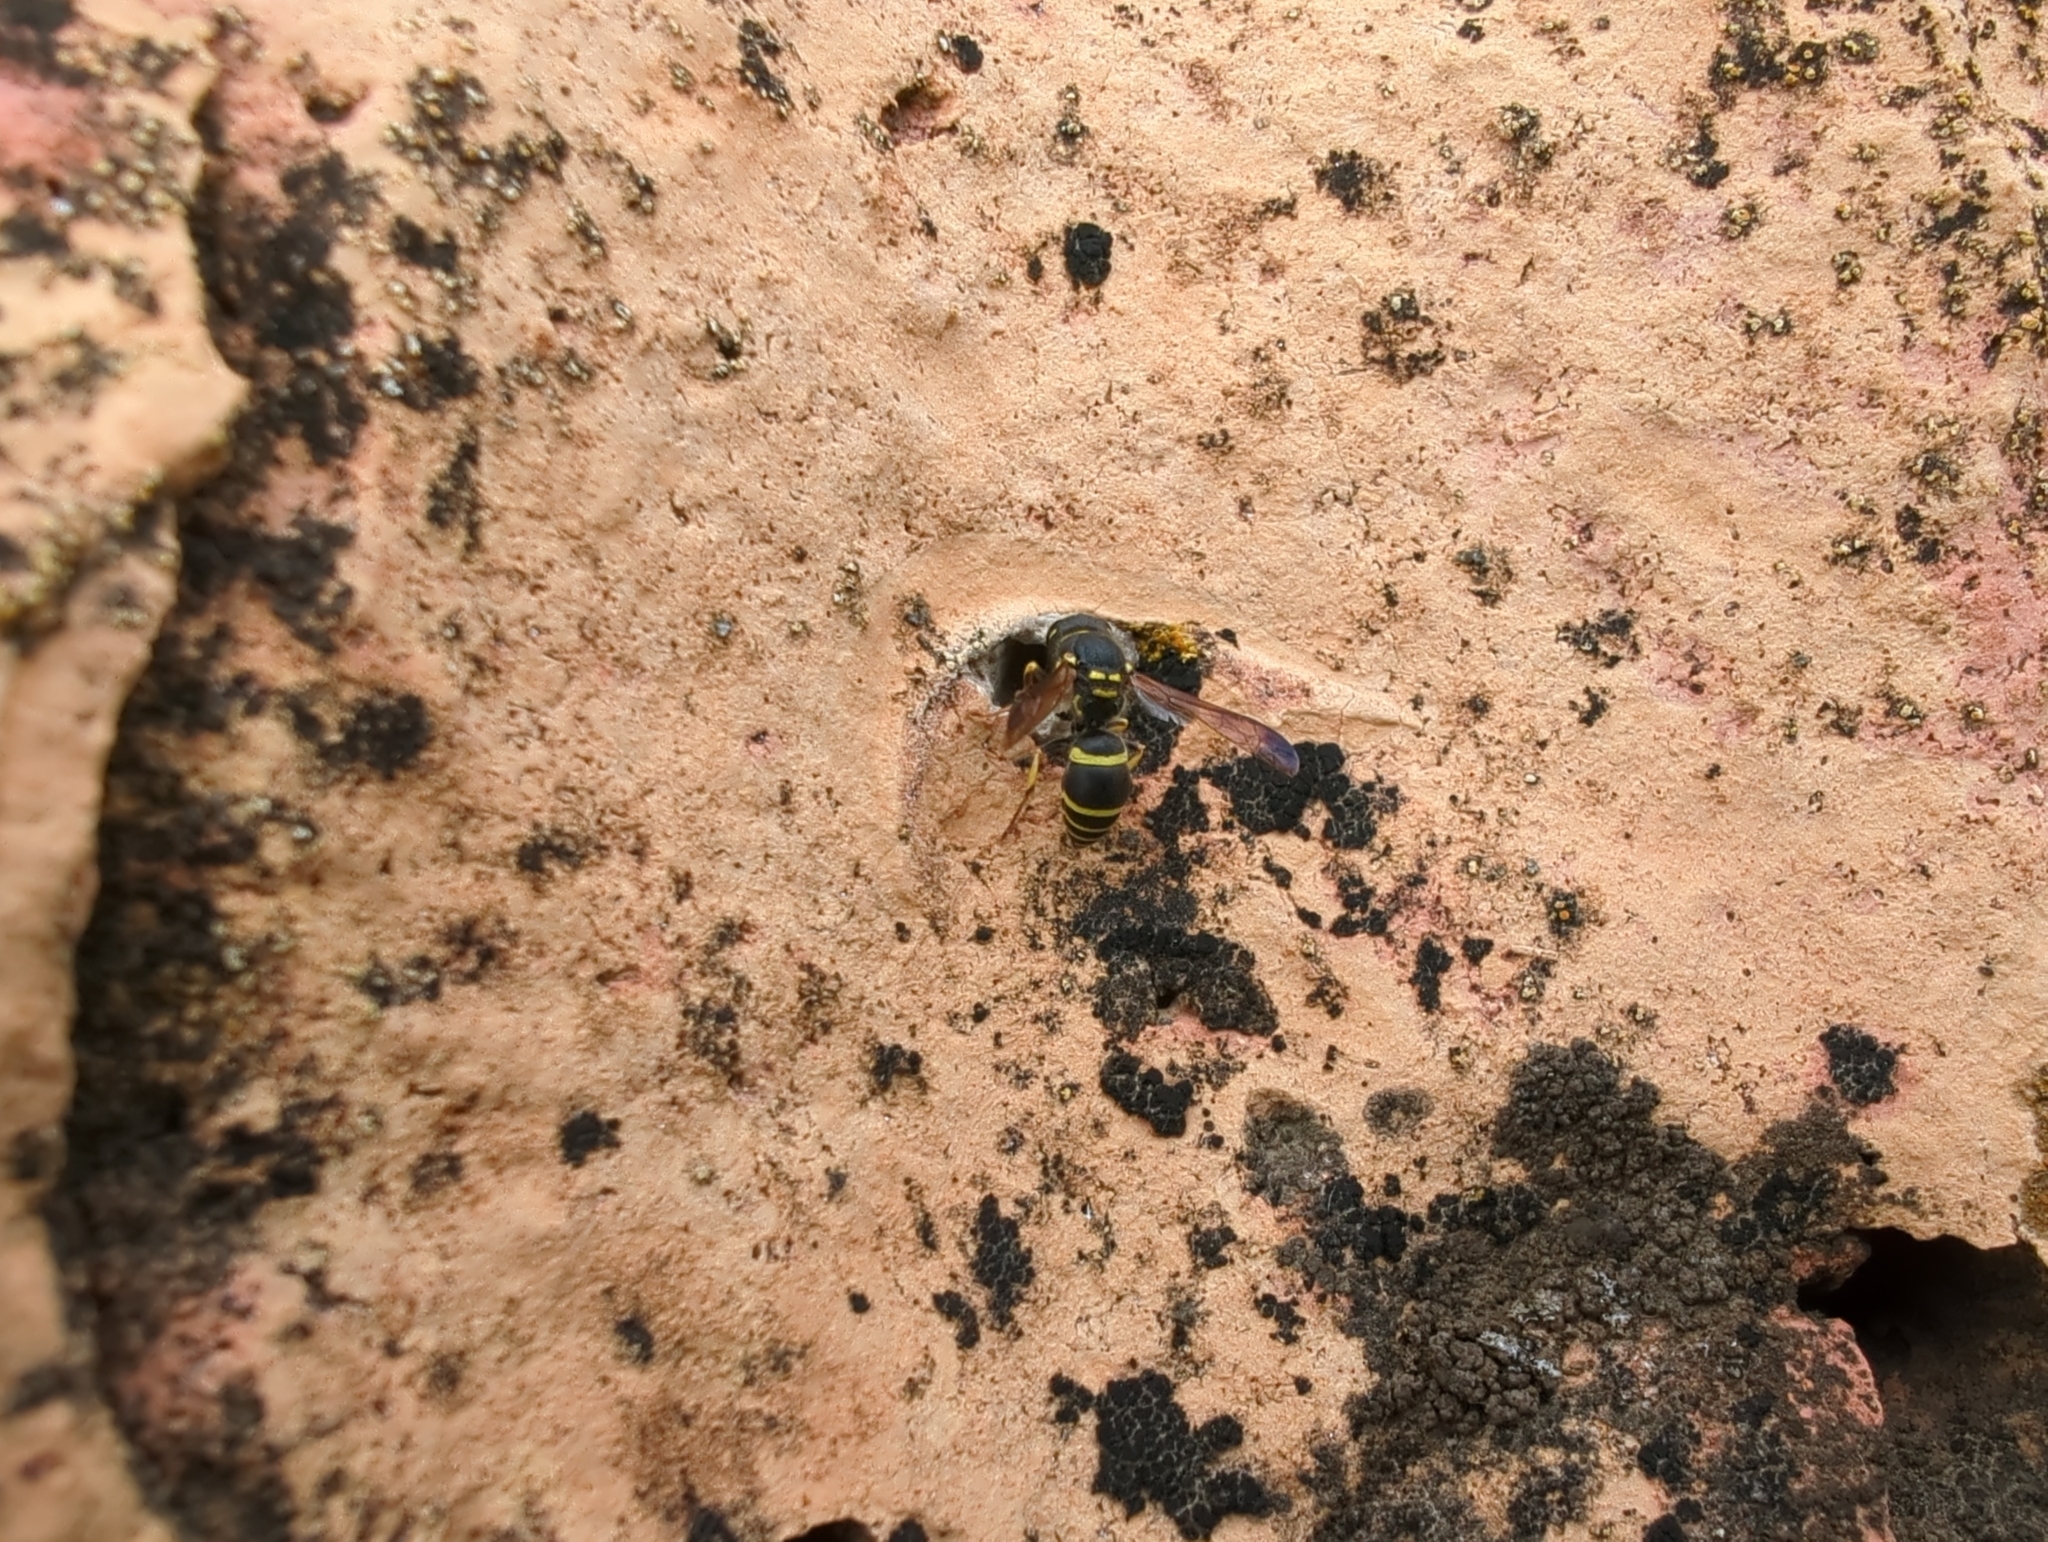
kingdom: Animalia
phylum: Arthropoda
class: Insecta
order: Hymenoptera
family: Vespidae
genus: Ancistrocerus
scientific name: Ancistrocerus catskill
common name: Vespid wasp
